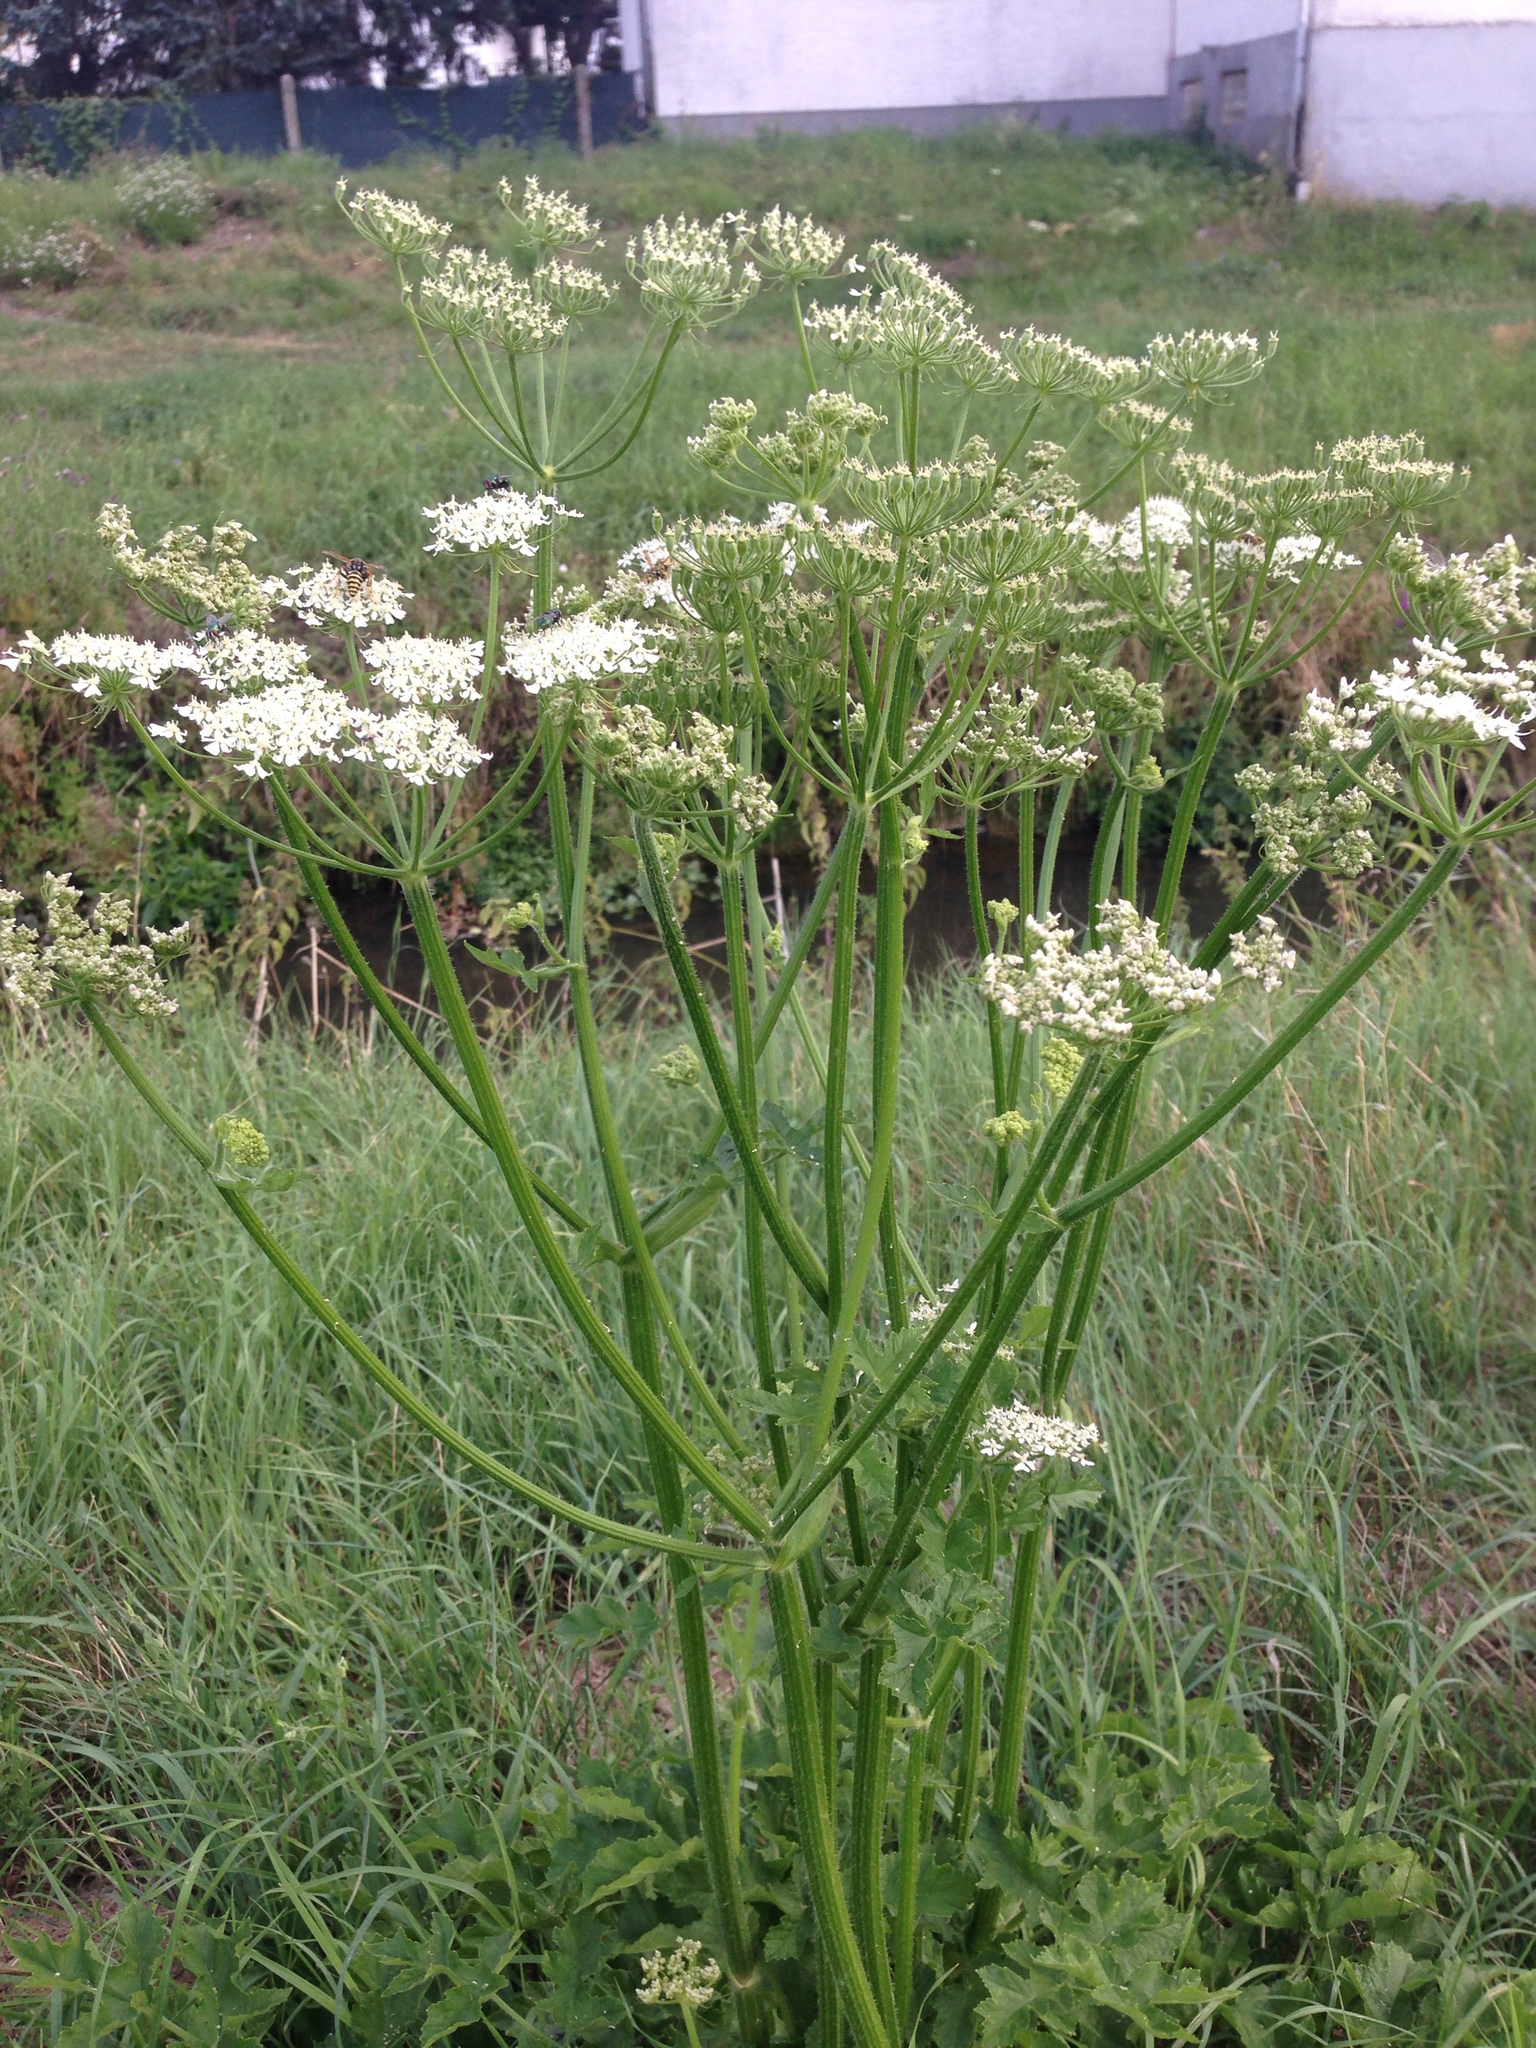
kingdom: Plantae
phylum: Tracheophyta
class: Magnoliopsida
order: Apiales
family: Apiaceae
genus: Heracleum
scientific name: Heracleum sphondylium
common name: Hogweed
